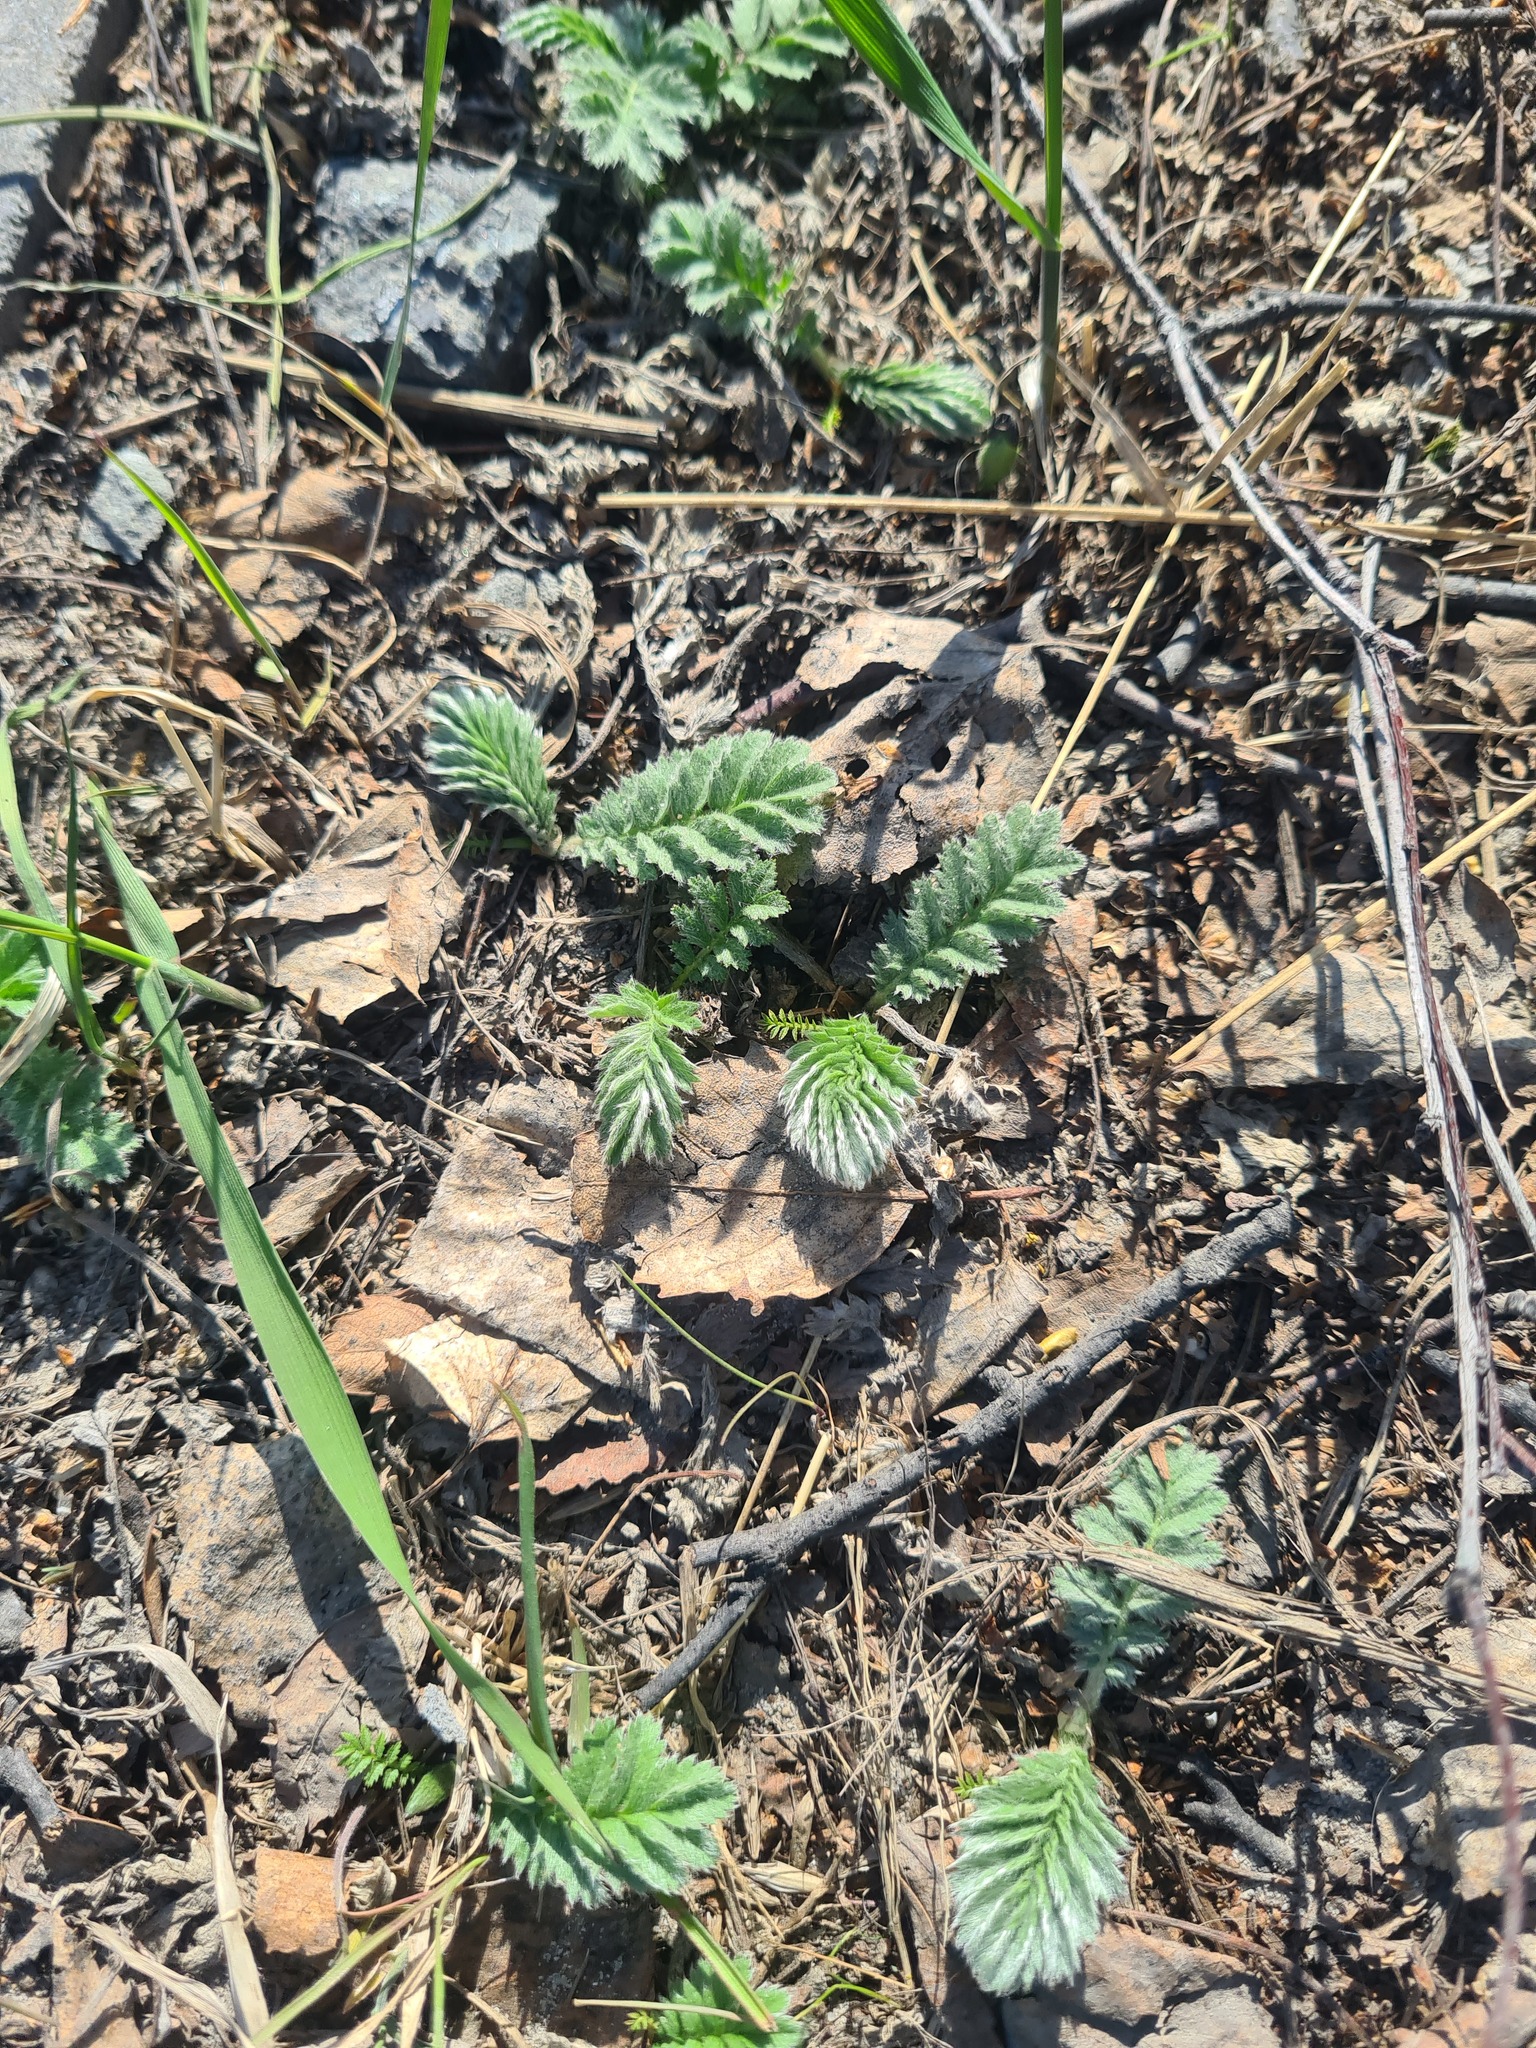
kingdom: Plantae
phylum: Tracheophyta
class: Magnoliopsida
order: Rosales
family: Rosaceae
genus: Argentina
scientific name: Argentina anserina
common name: Common silverweed
